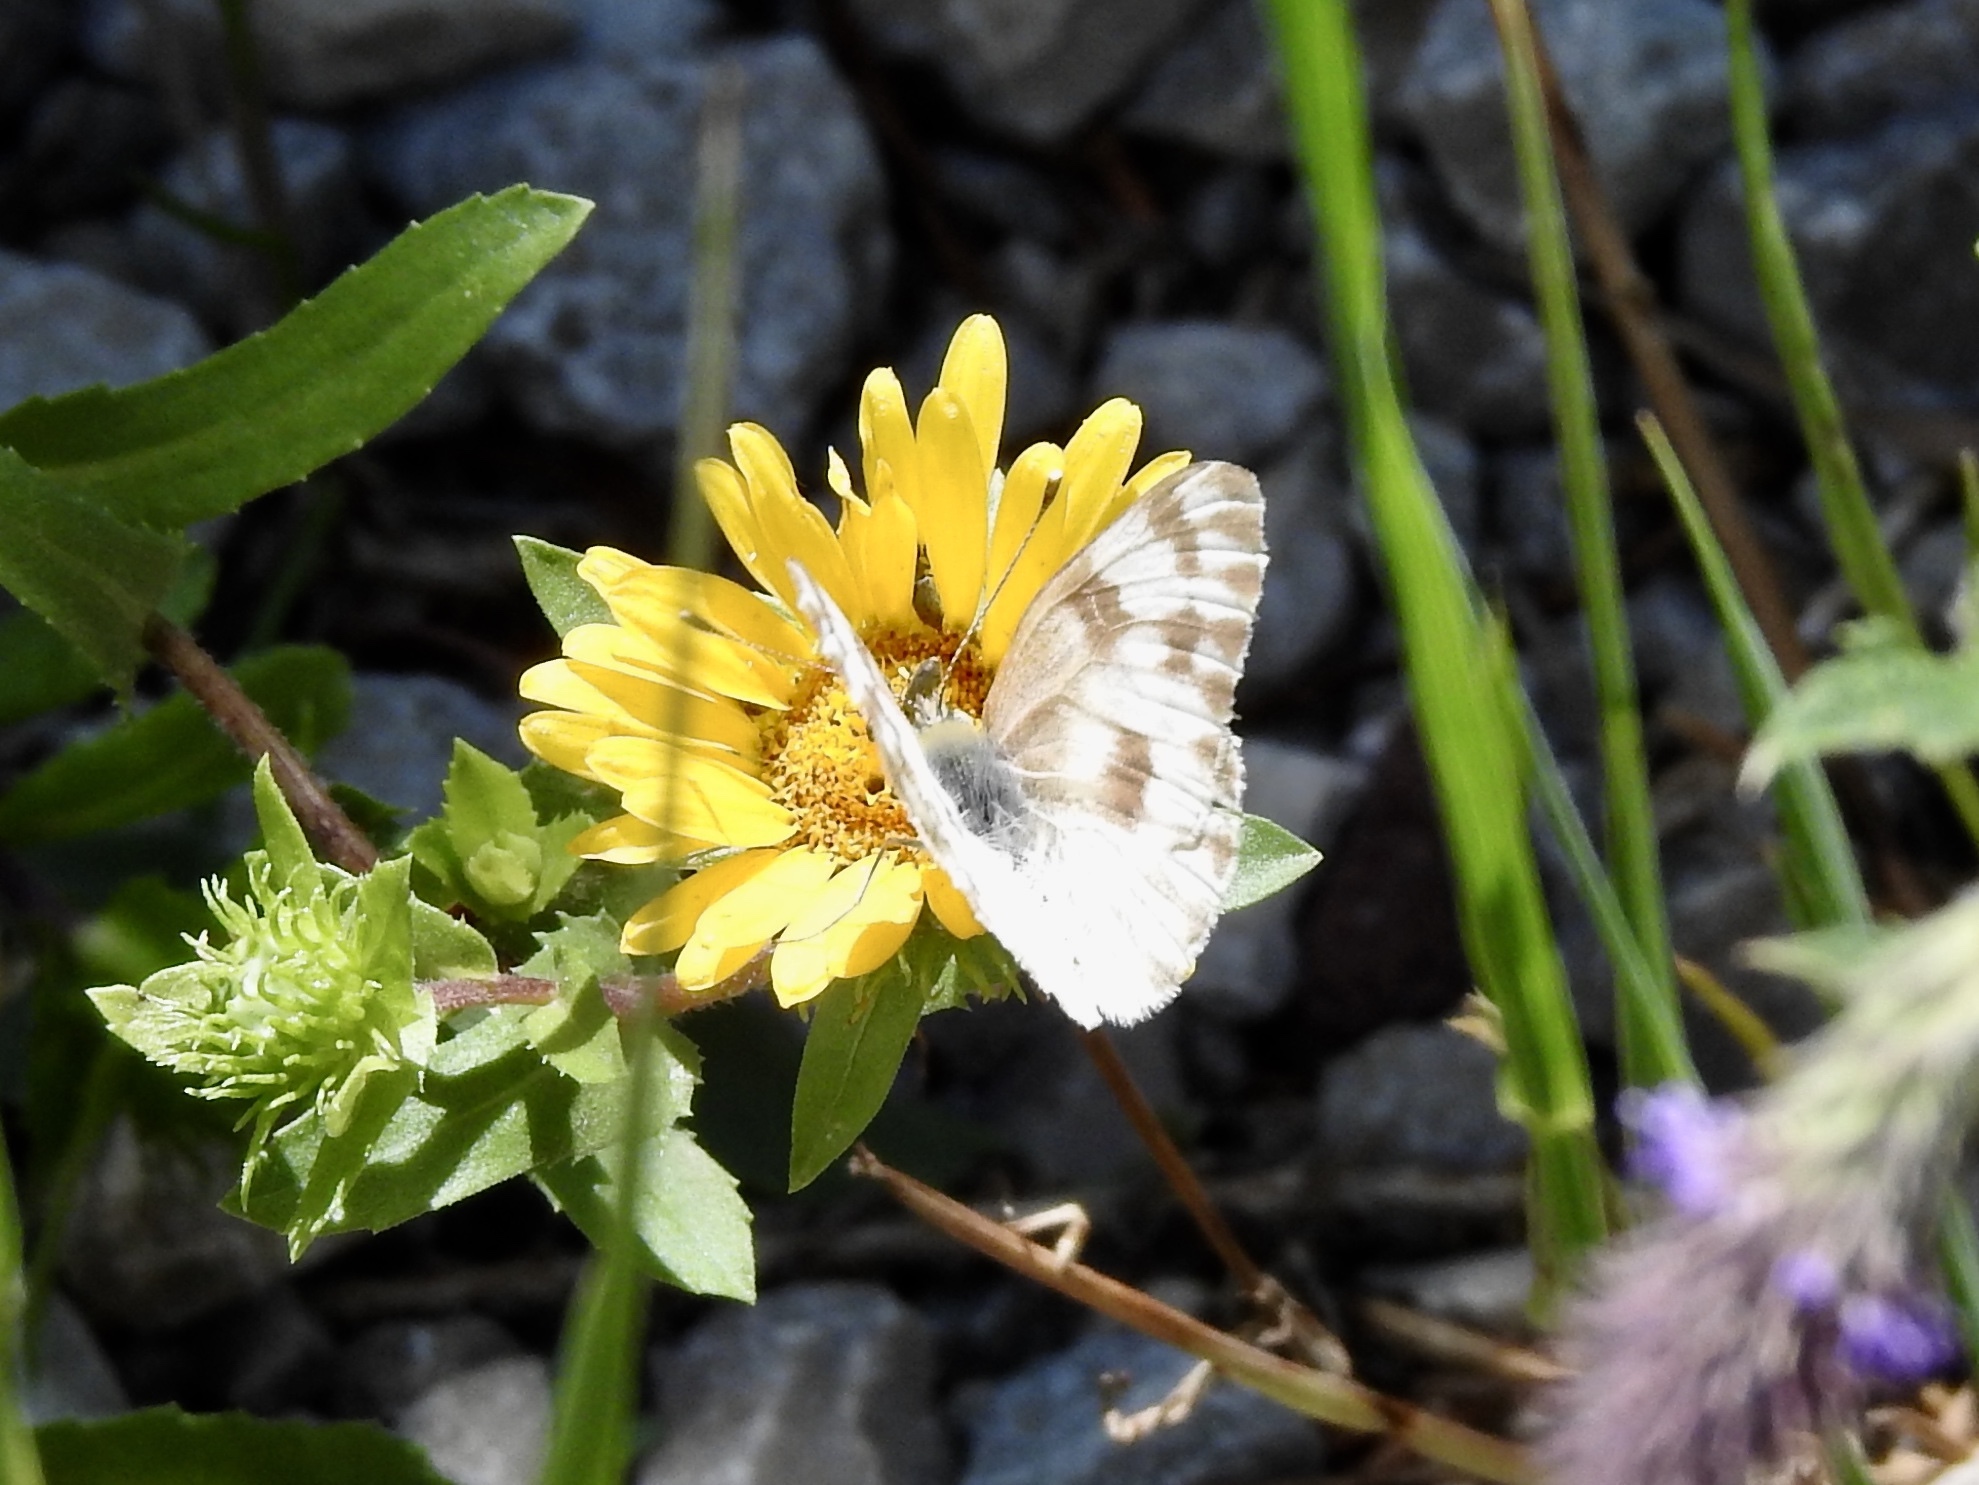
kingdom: Animalia
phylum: Arthropoda
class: Insecta
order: Lepidoptera
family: Pieridae
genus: Pontia
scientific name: Pontia protodice
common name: Checkered white
